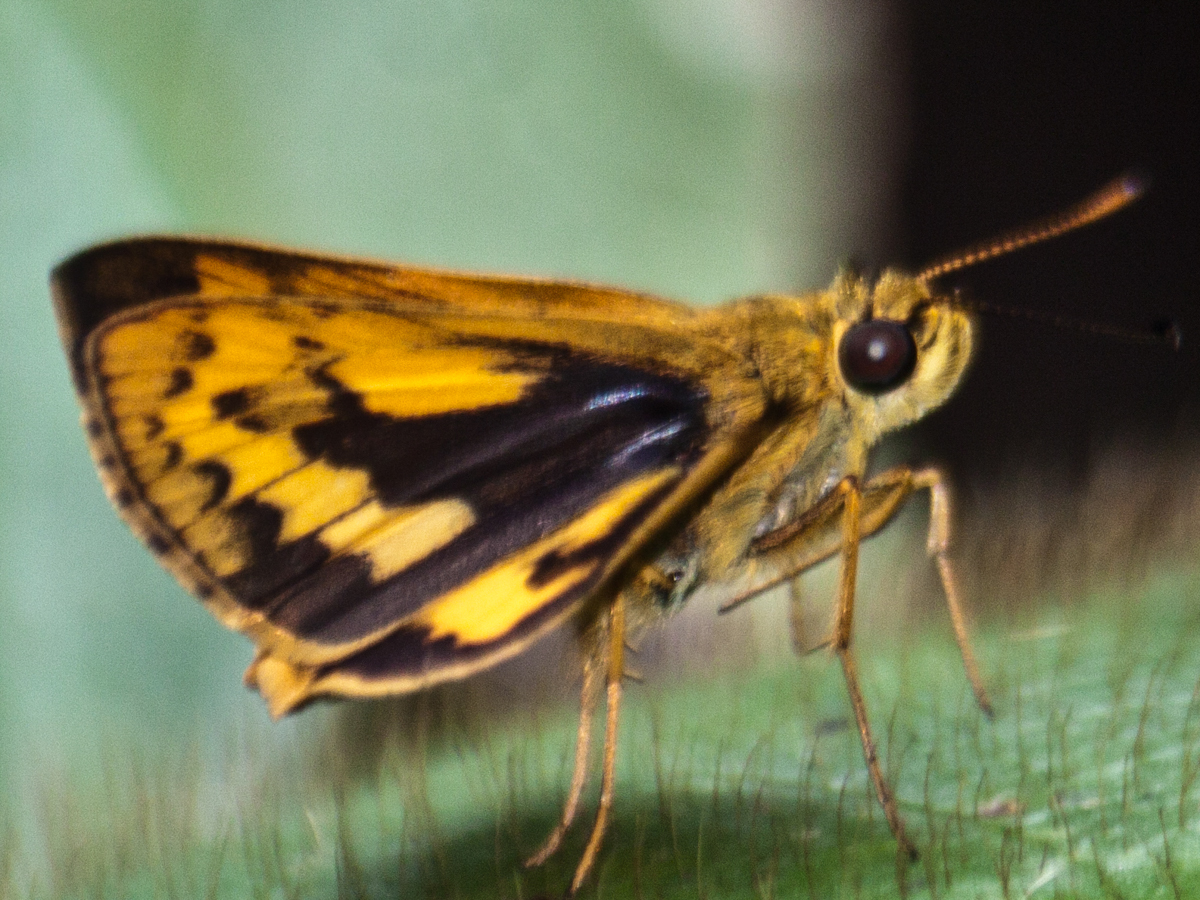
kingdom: Animalia
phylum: Arthropoda
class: Insecta
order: Lepidoptera
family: Hesperiidae
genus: Potanthus
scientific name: Potanthus rectifasciata
